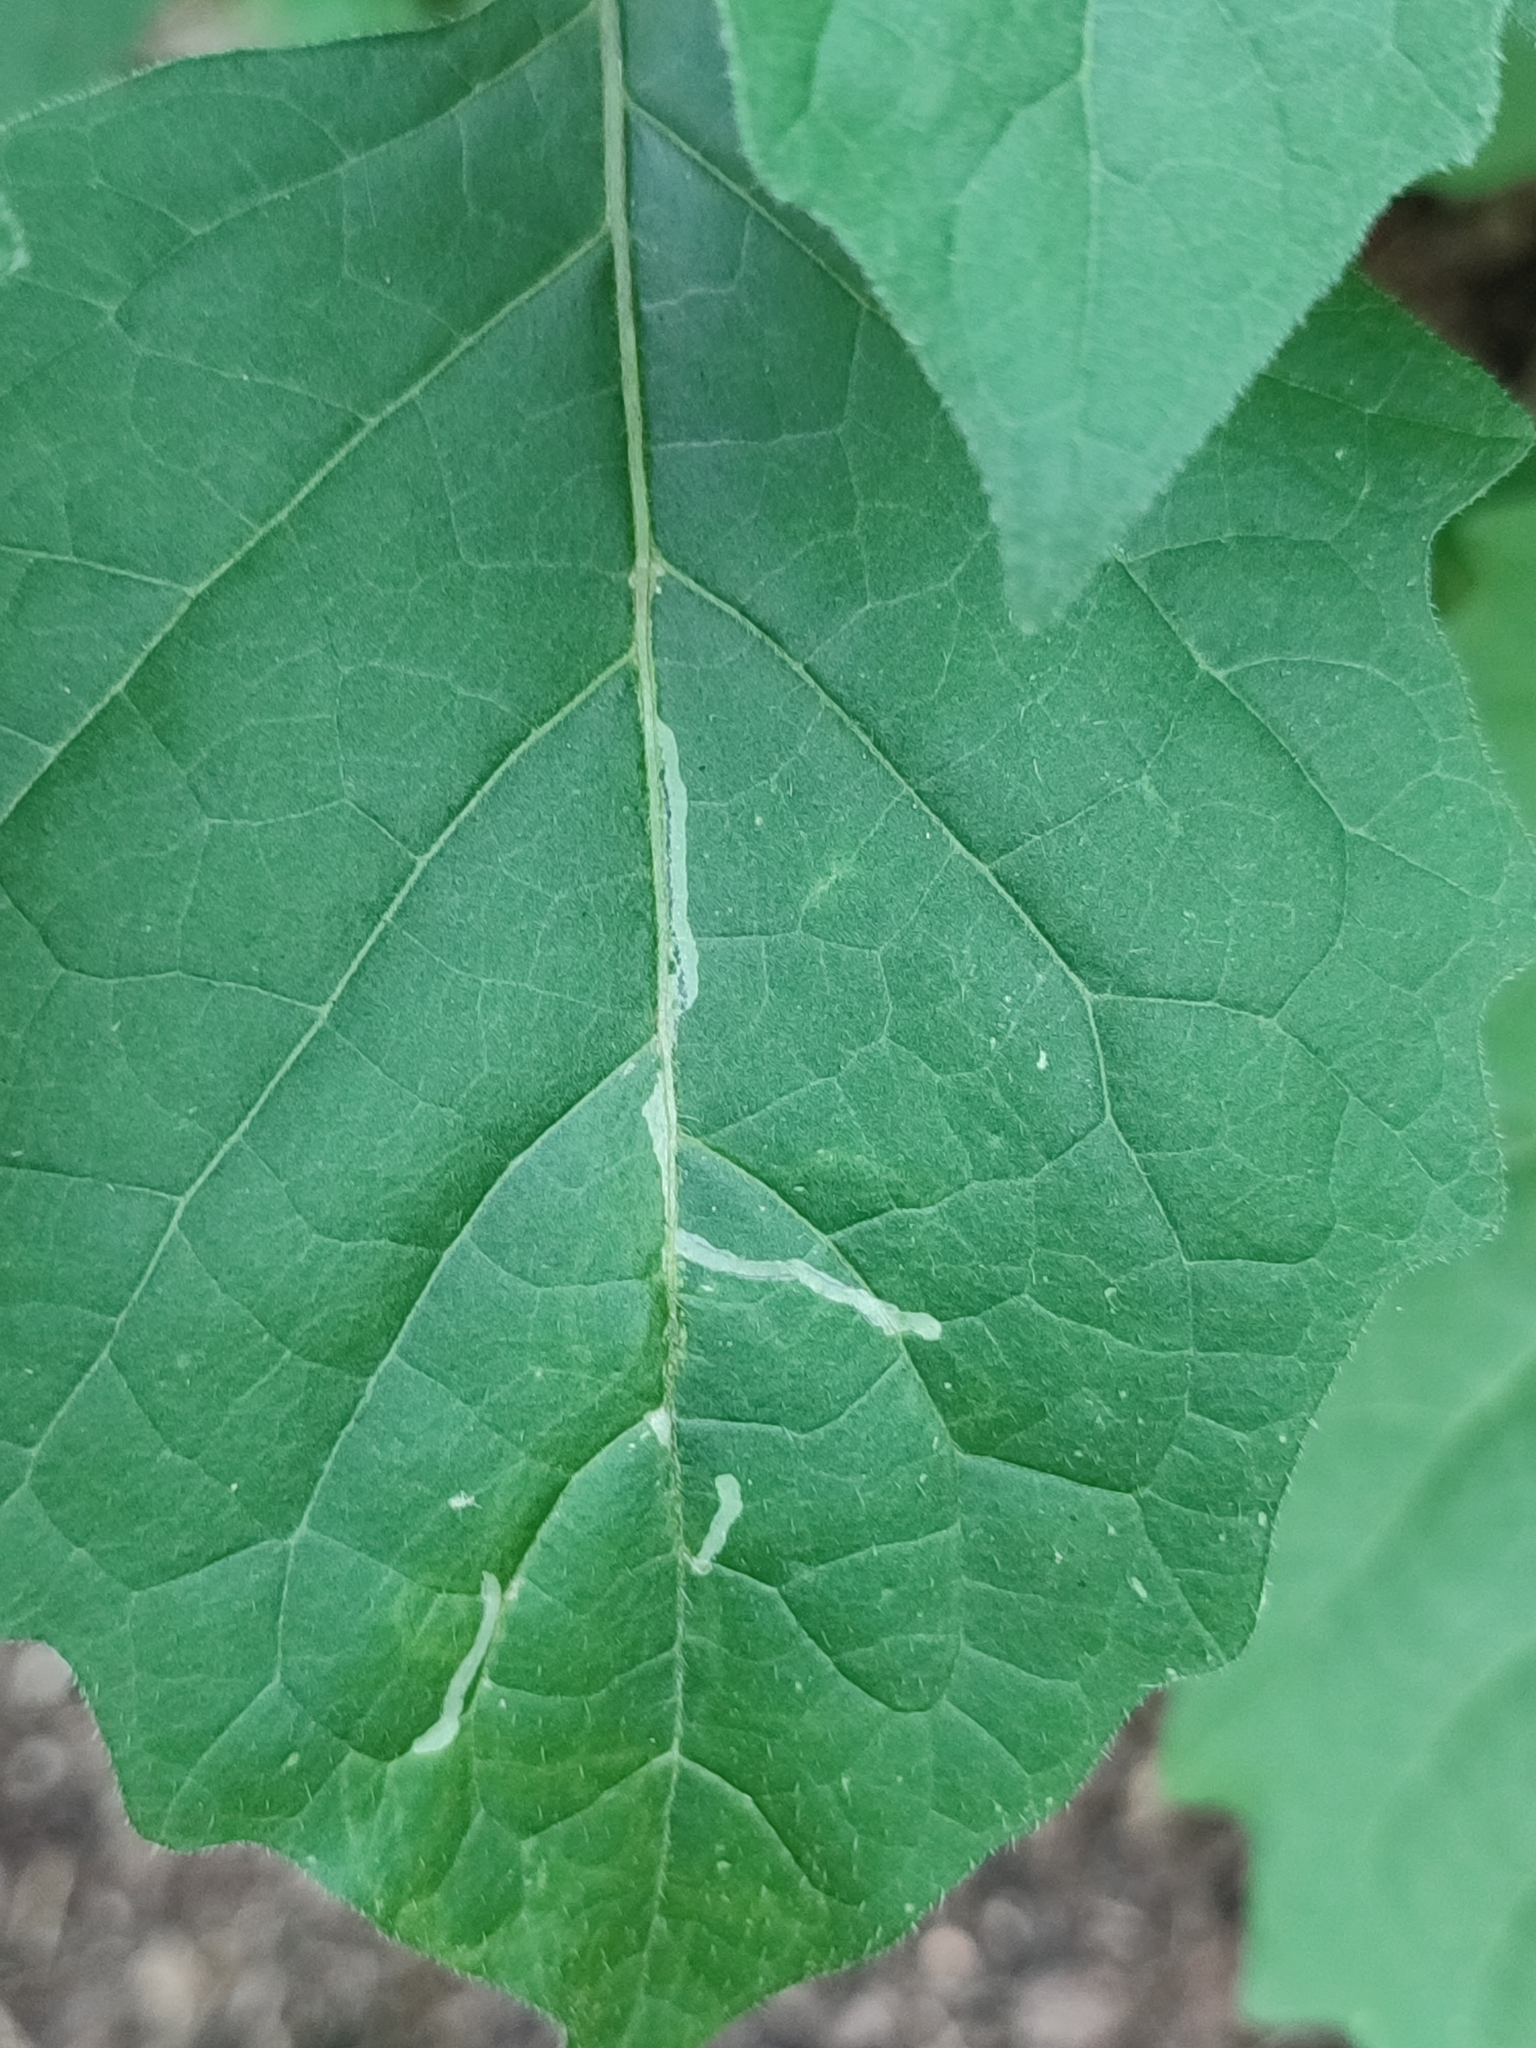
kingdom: Animalia
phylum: Arthropoda
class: Insecta
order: Diptera
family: Agromyzidae
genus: Liriomyza
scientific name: Liriomyza bryoniae
